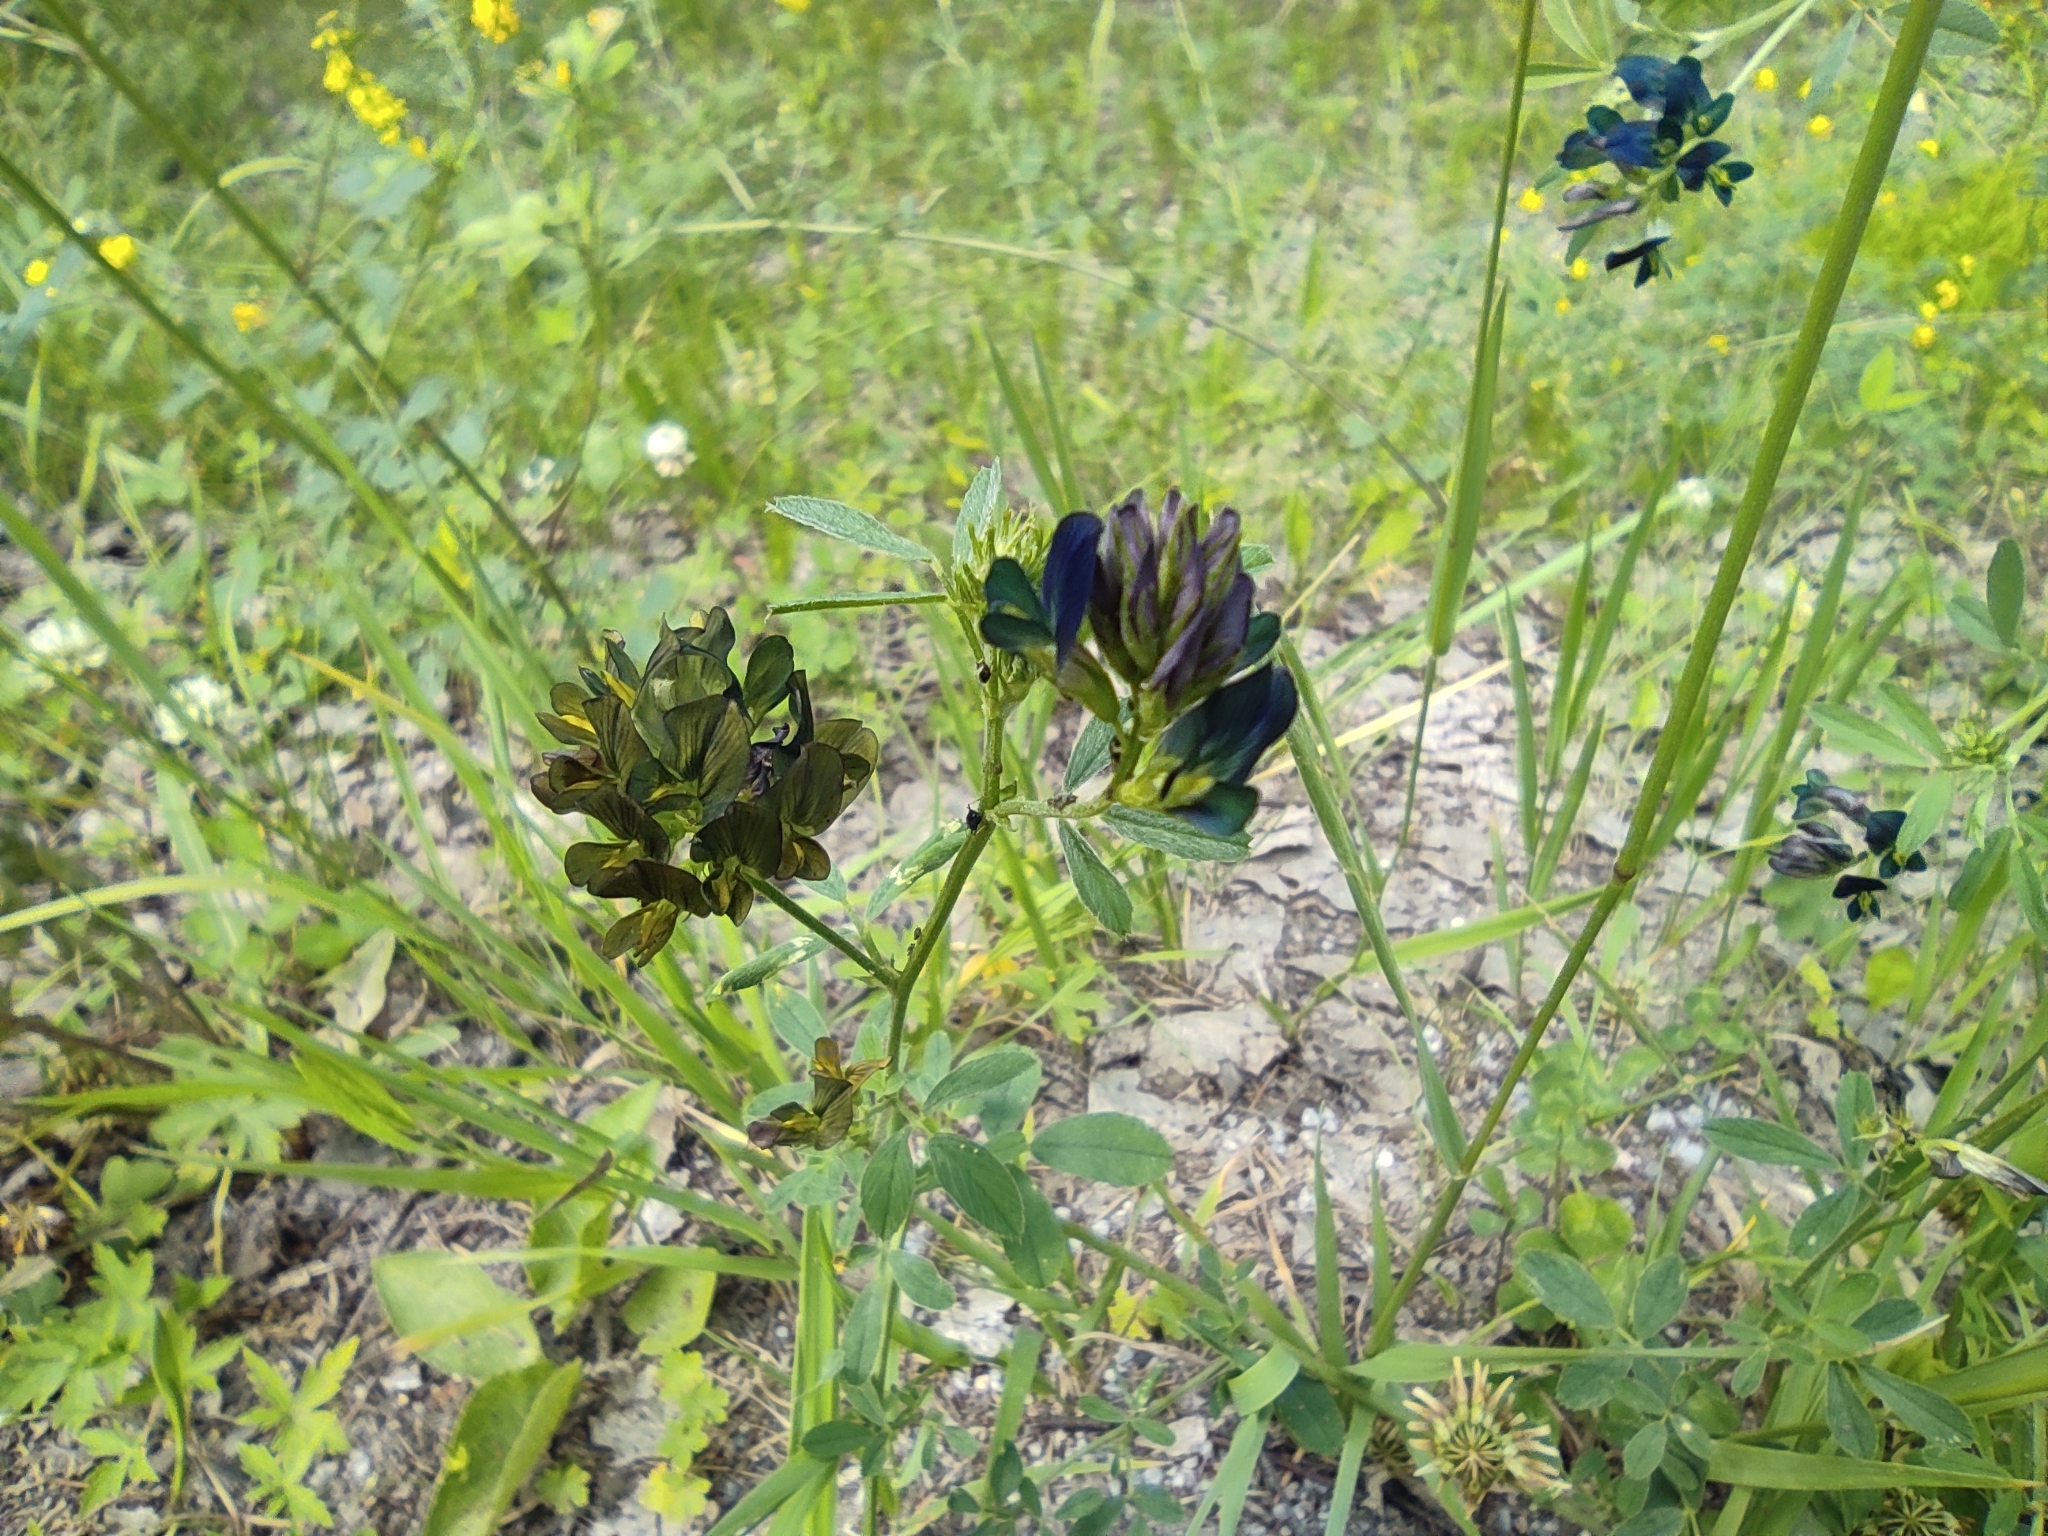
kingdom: Plantae
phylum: Tracheophyta
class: Magnoliopsida
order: Fabales
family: Fabaceae
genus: Medicago
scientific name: Medicago varia
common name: Sand lucerne
